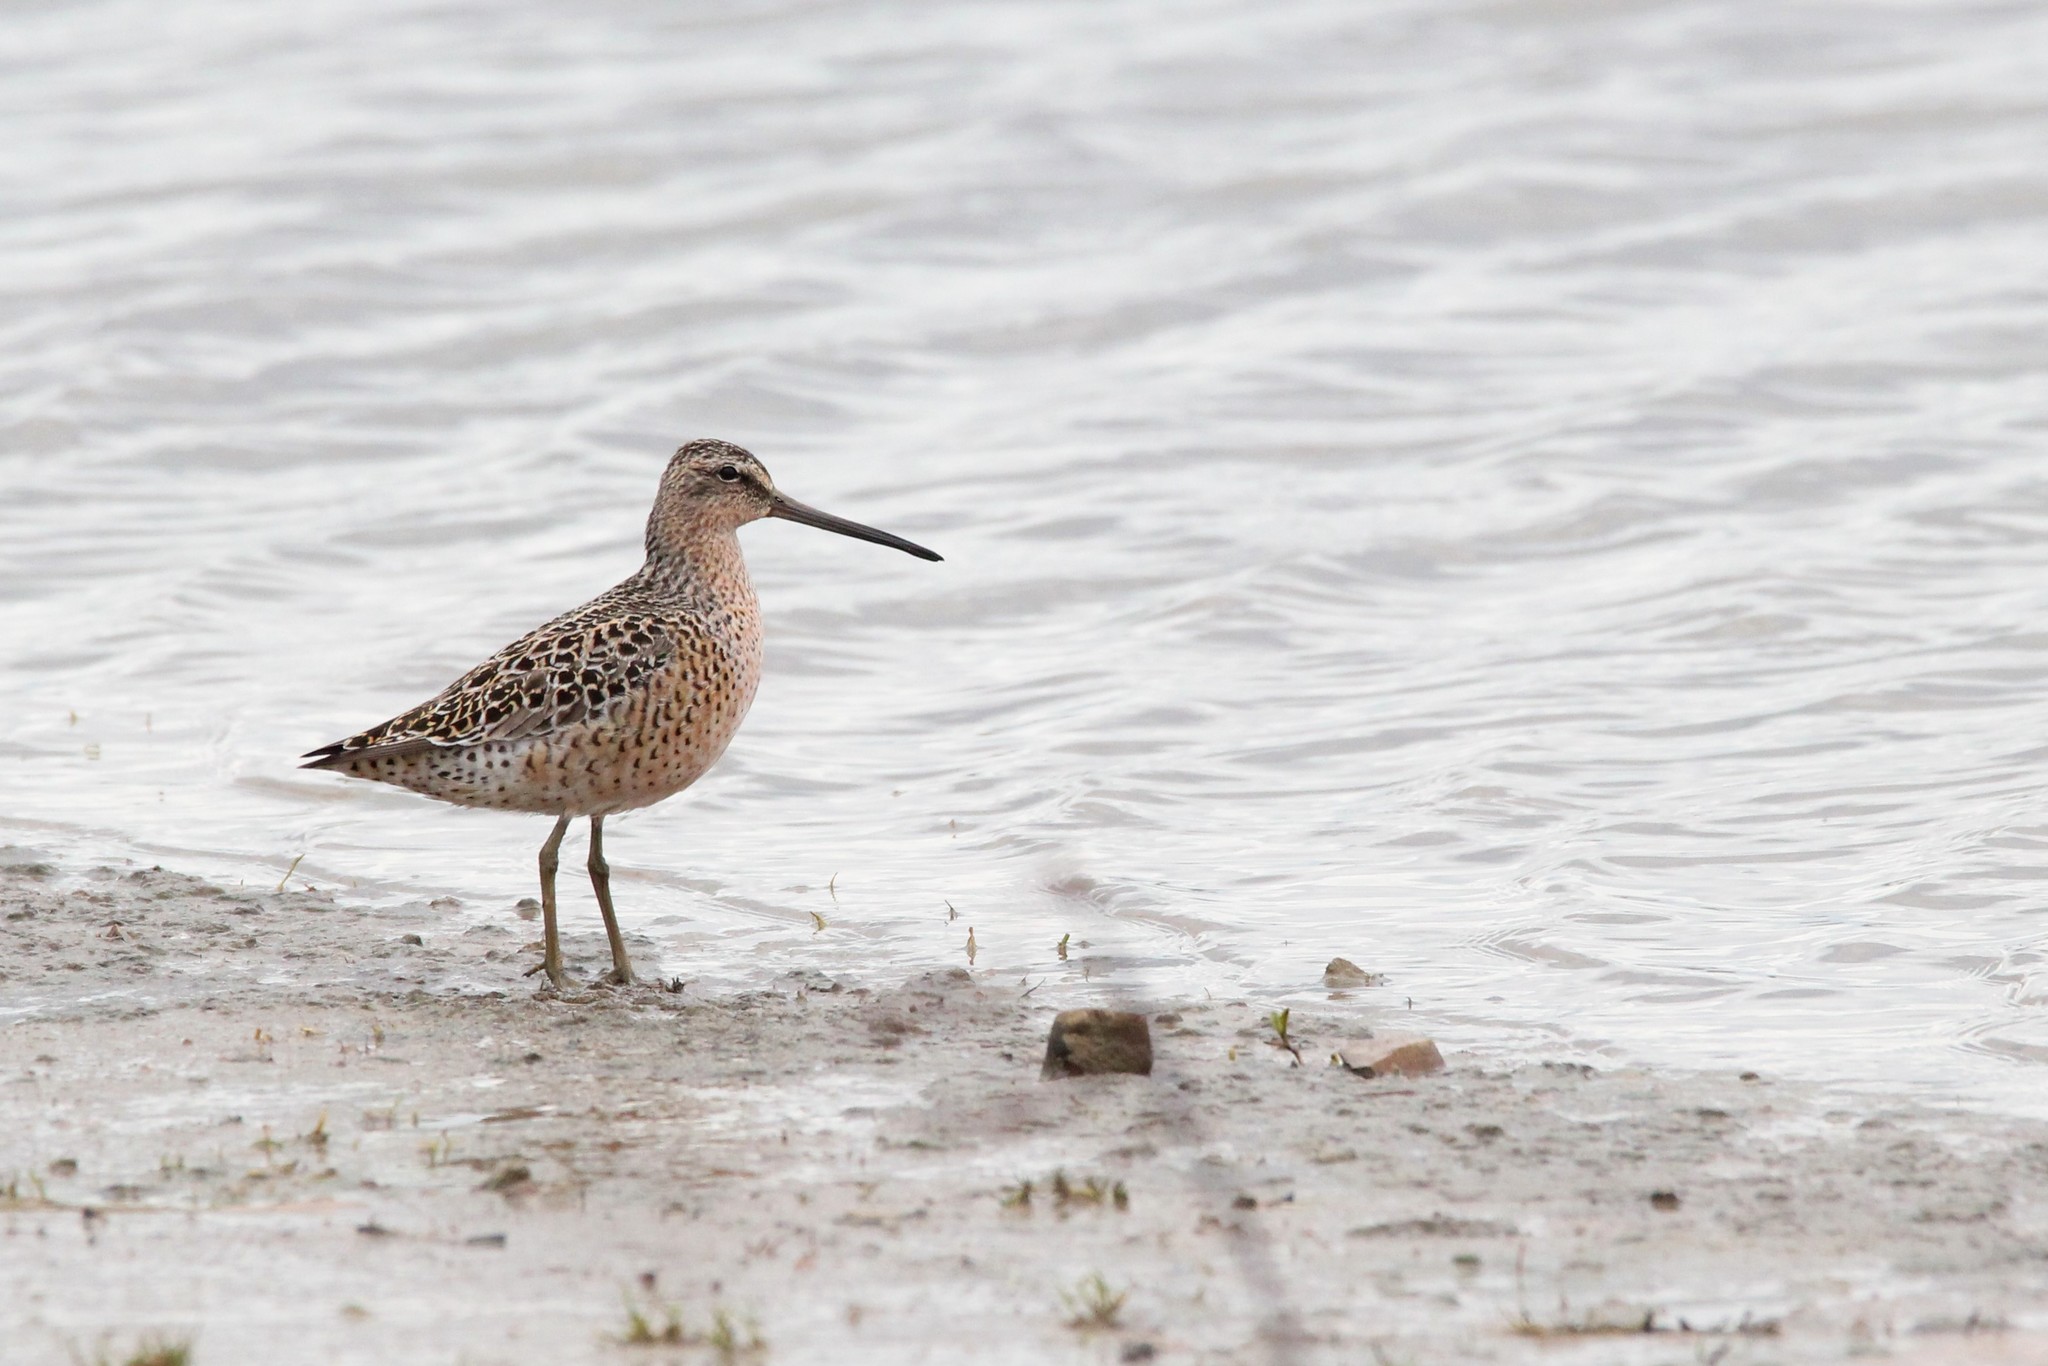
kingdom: Animalia
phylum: Chordata
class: Aves
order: Charadriiformes
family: Scolopacidae
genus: Limnodromus
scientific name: Limnodromus griseus
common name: Short-billed dowitcher
